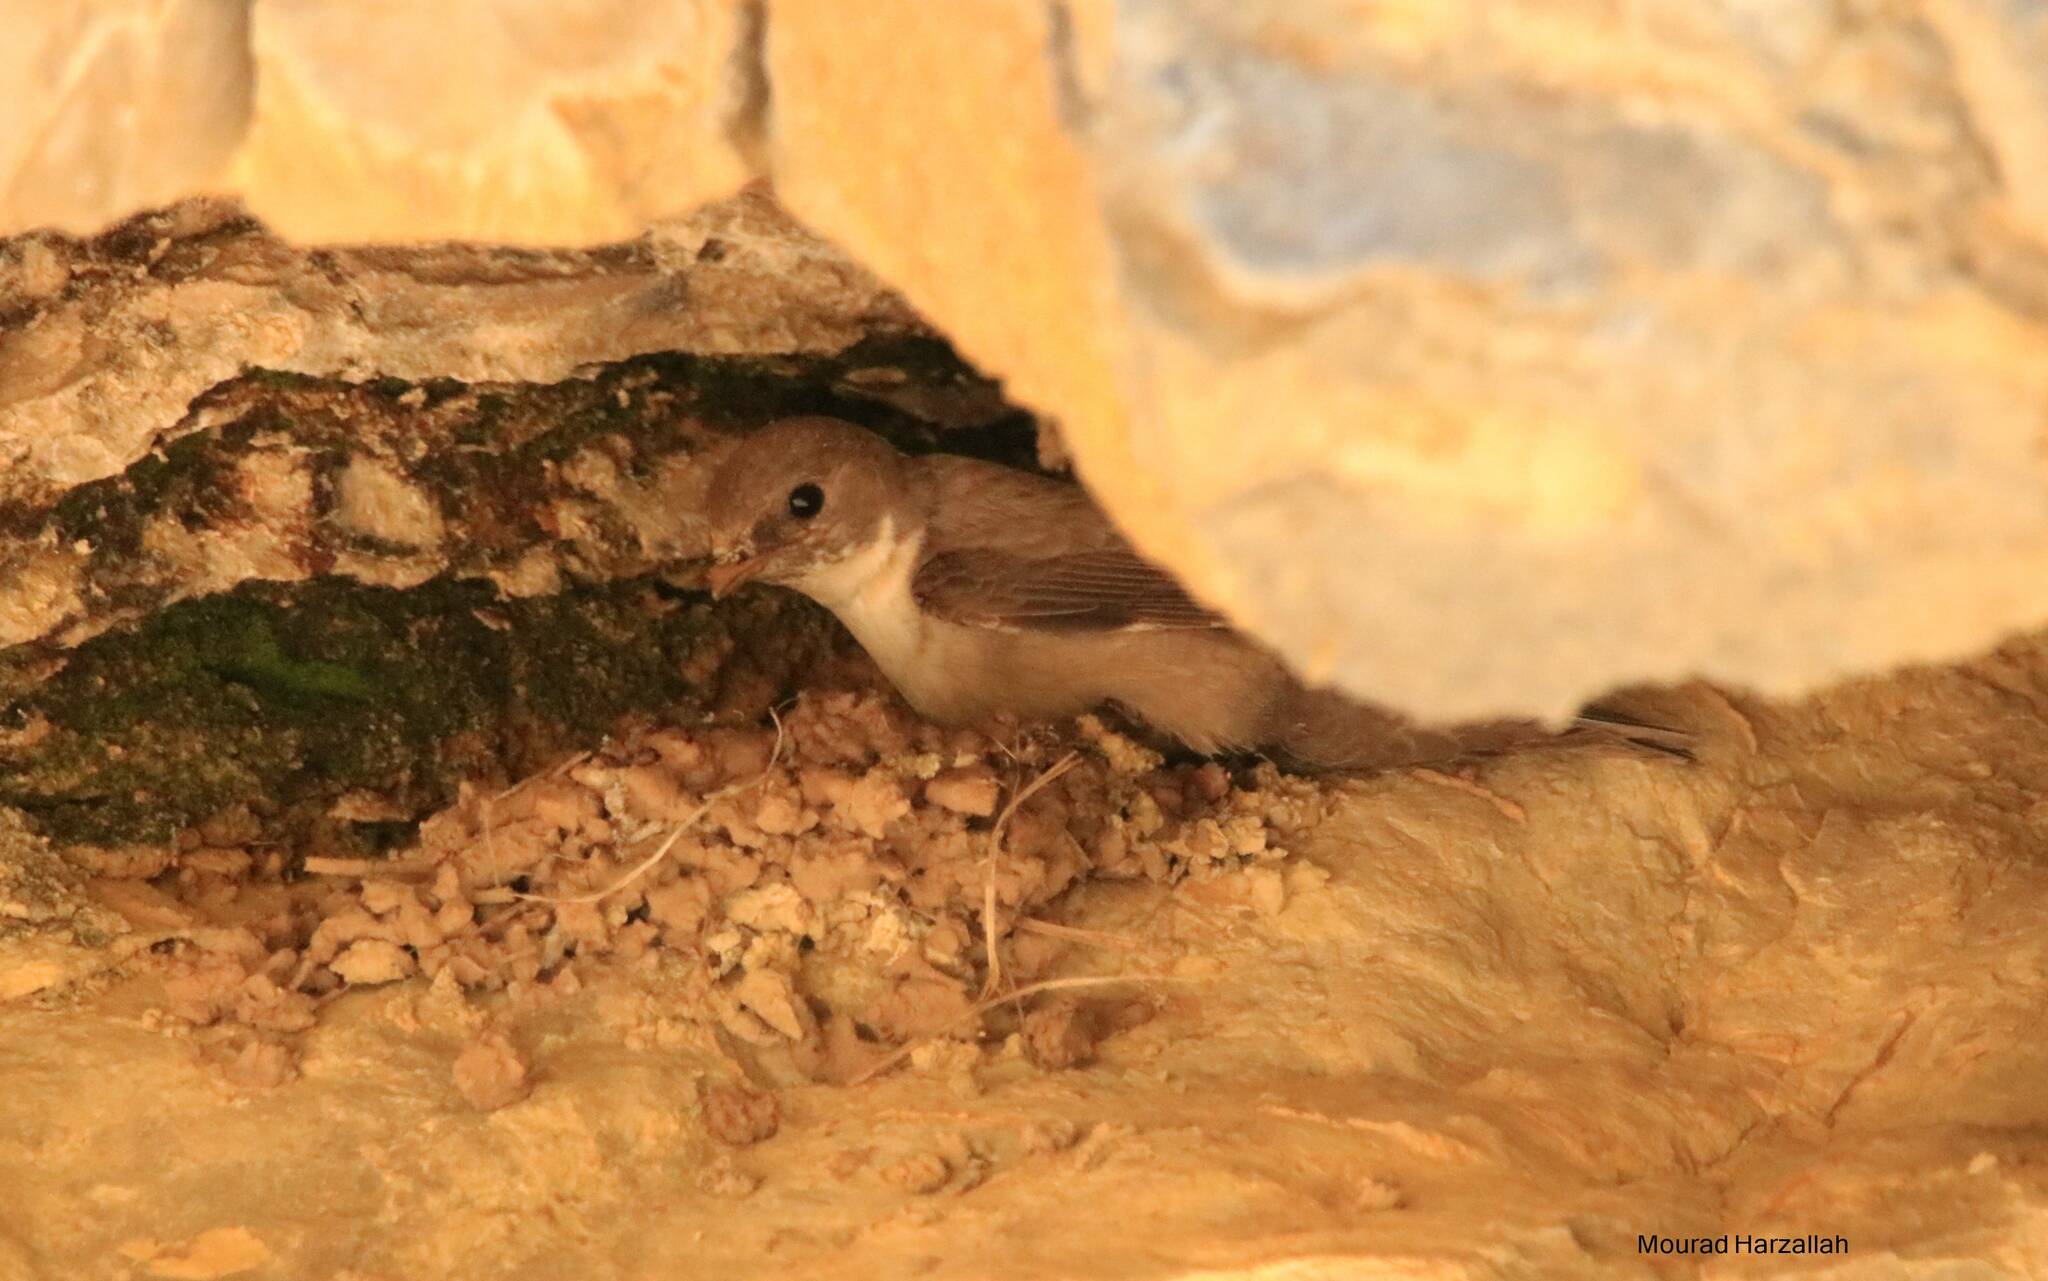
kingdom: Animalia
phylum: Chordata
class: Aves
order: Passeriformes
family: Hirundinidae
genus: Ptyonoprogne
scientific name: Ptyonoprogne rupestris
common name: Eurasian crag martin
